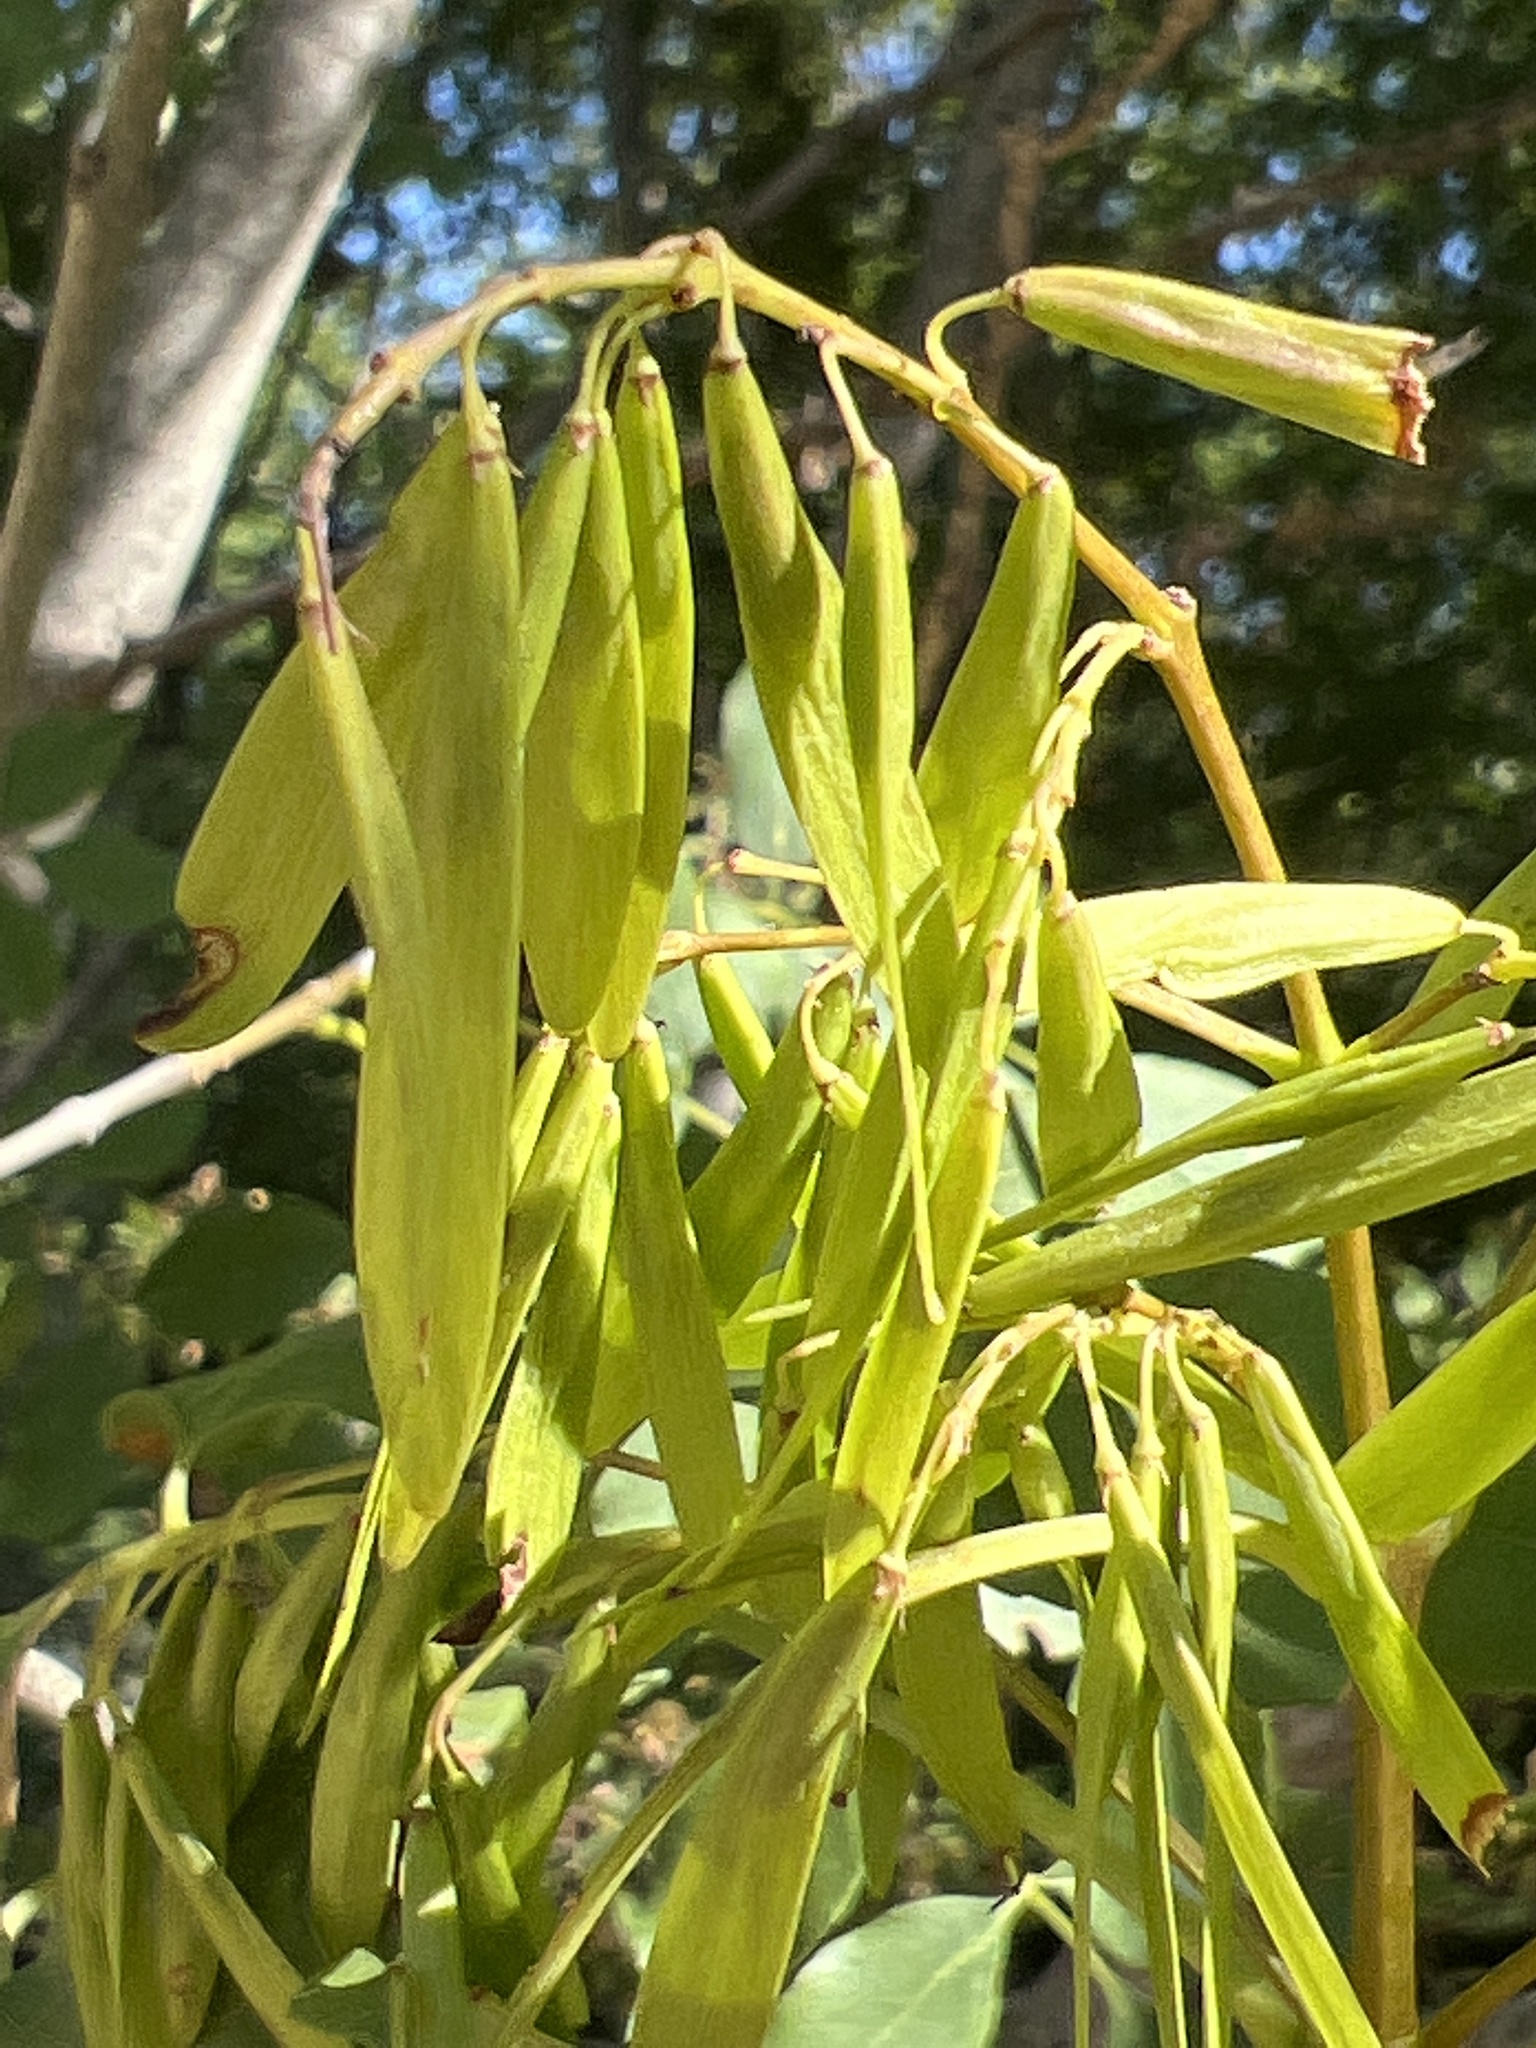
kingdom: Plantae
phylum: Tracheophyta
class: Magnoliopsida
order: Lamiales
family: Oleaceae
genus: Fraxinus
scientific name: Fraxinus ornus
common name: Manna ash
